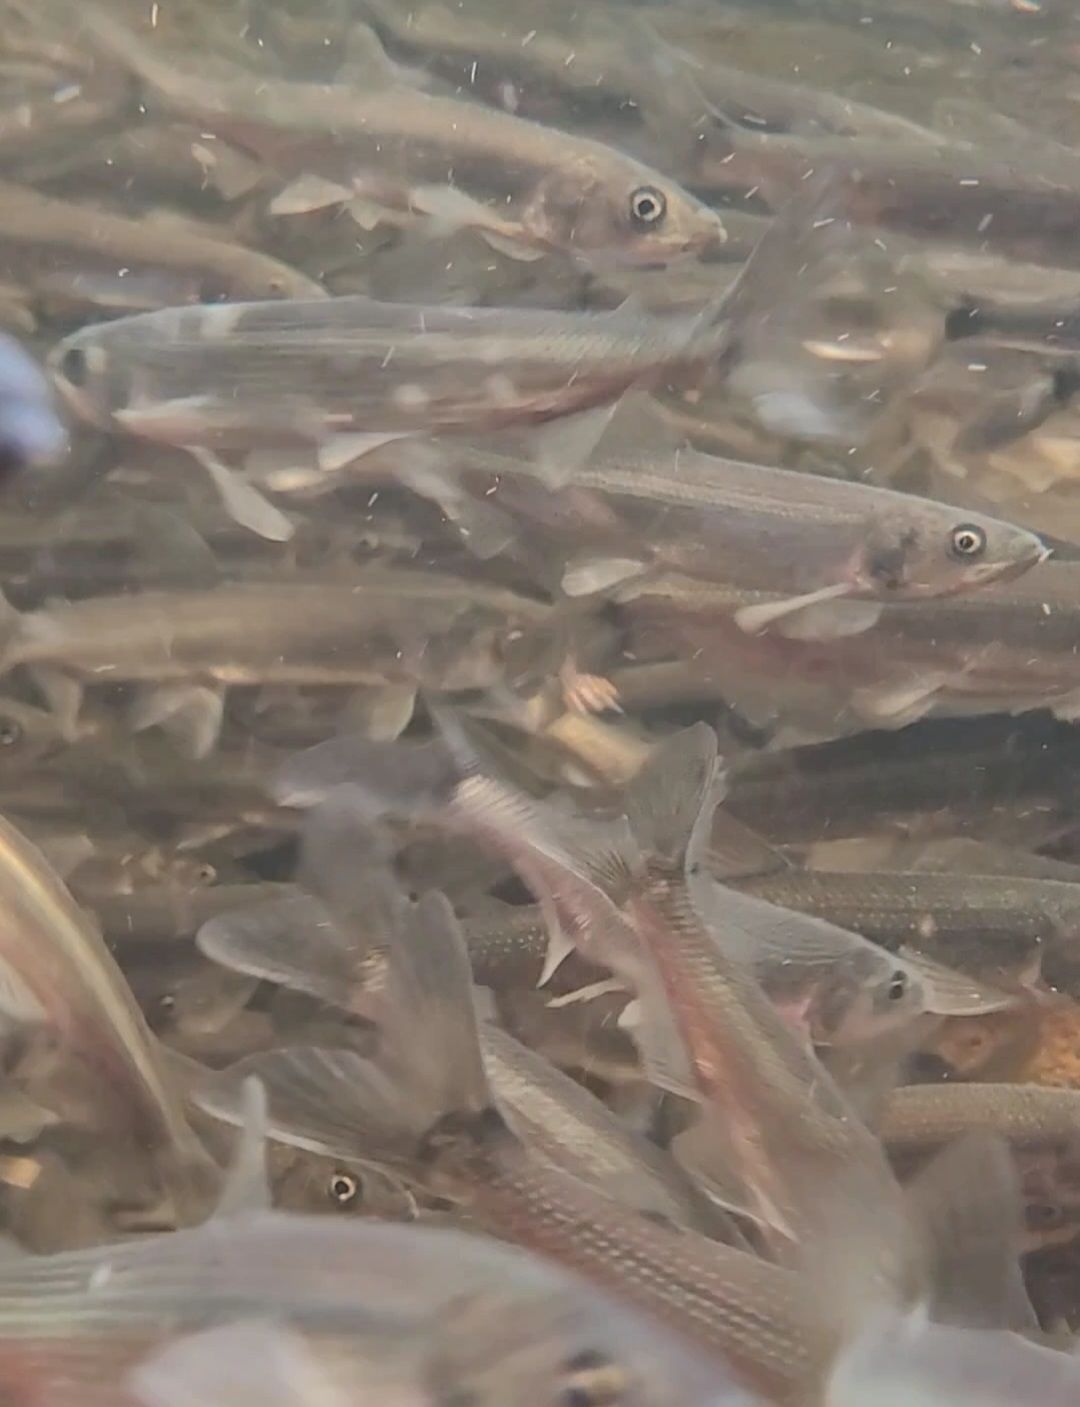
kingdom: Animalia
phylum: Chordata
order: Osmeriformes
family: Osmeridae
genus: Osmerus
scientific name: Osmerus mordax
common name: Rainbow smelt
